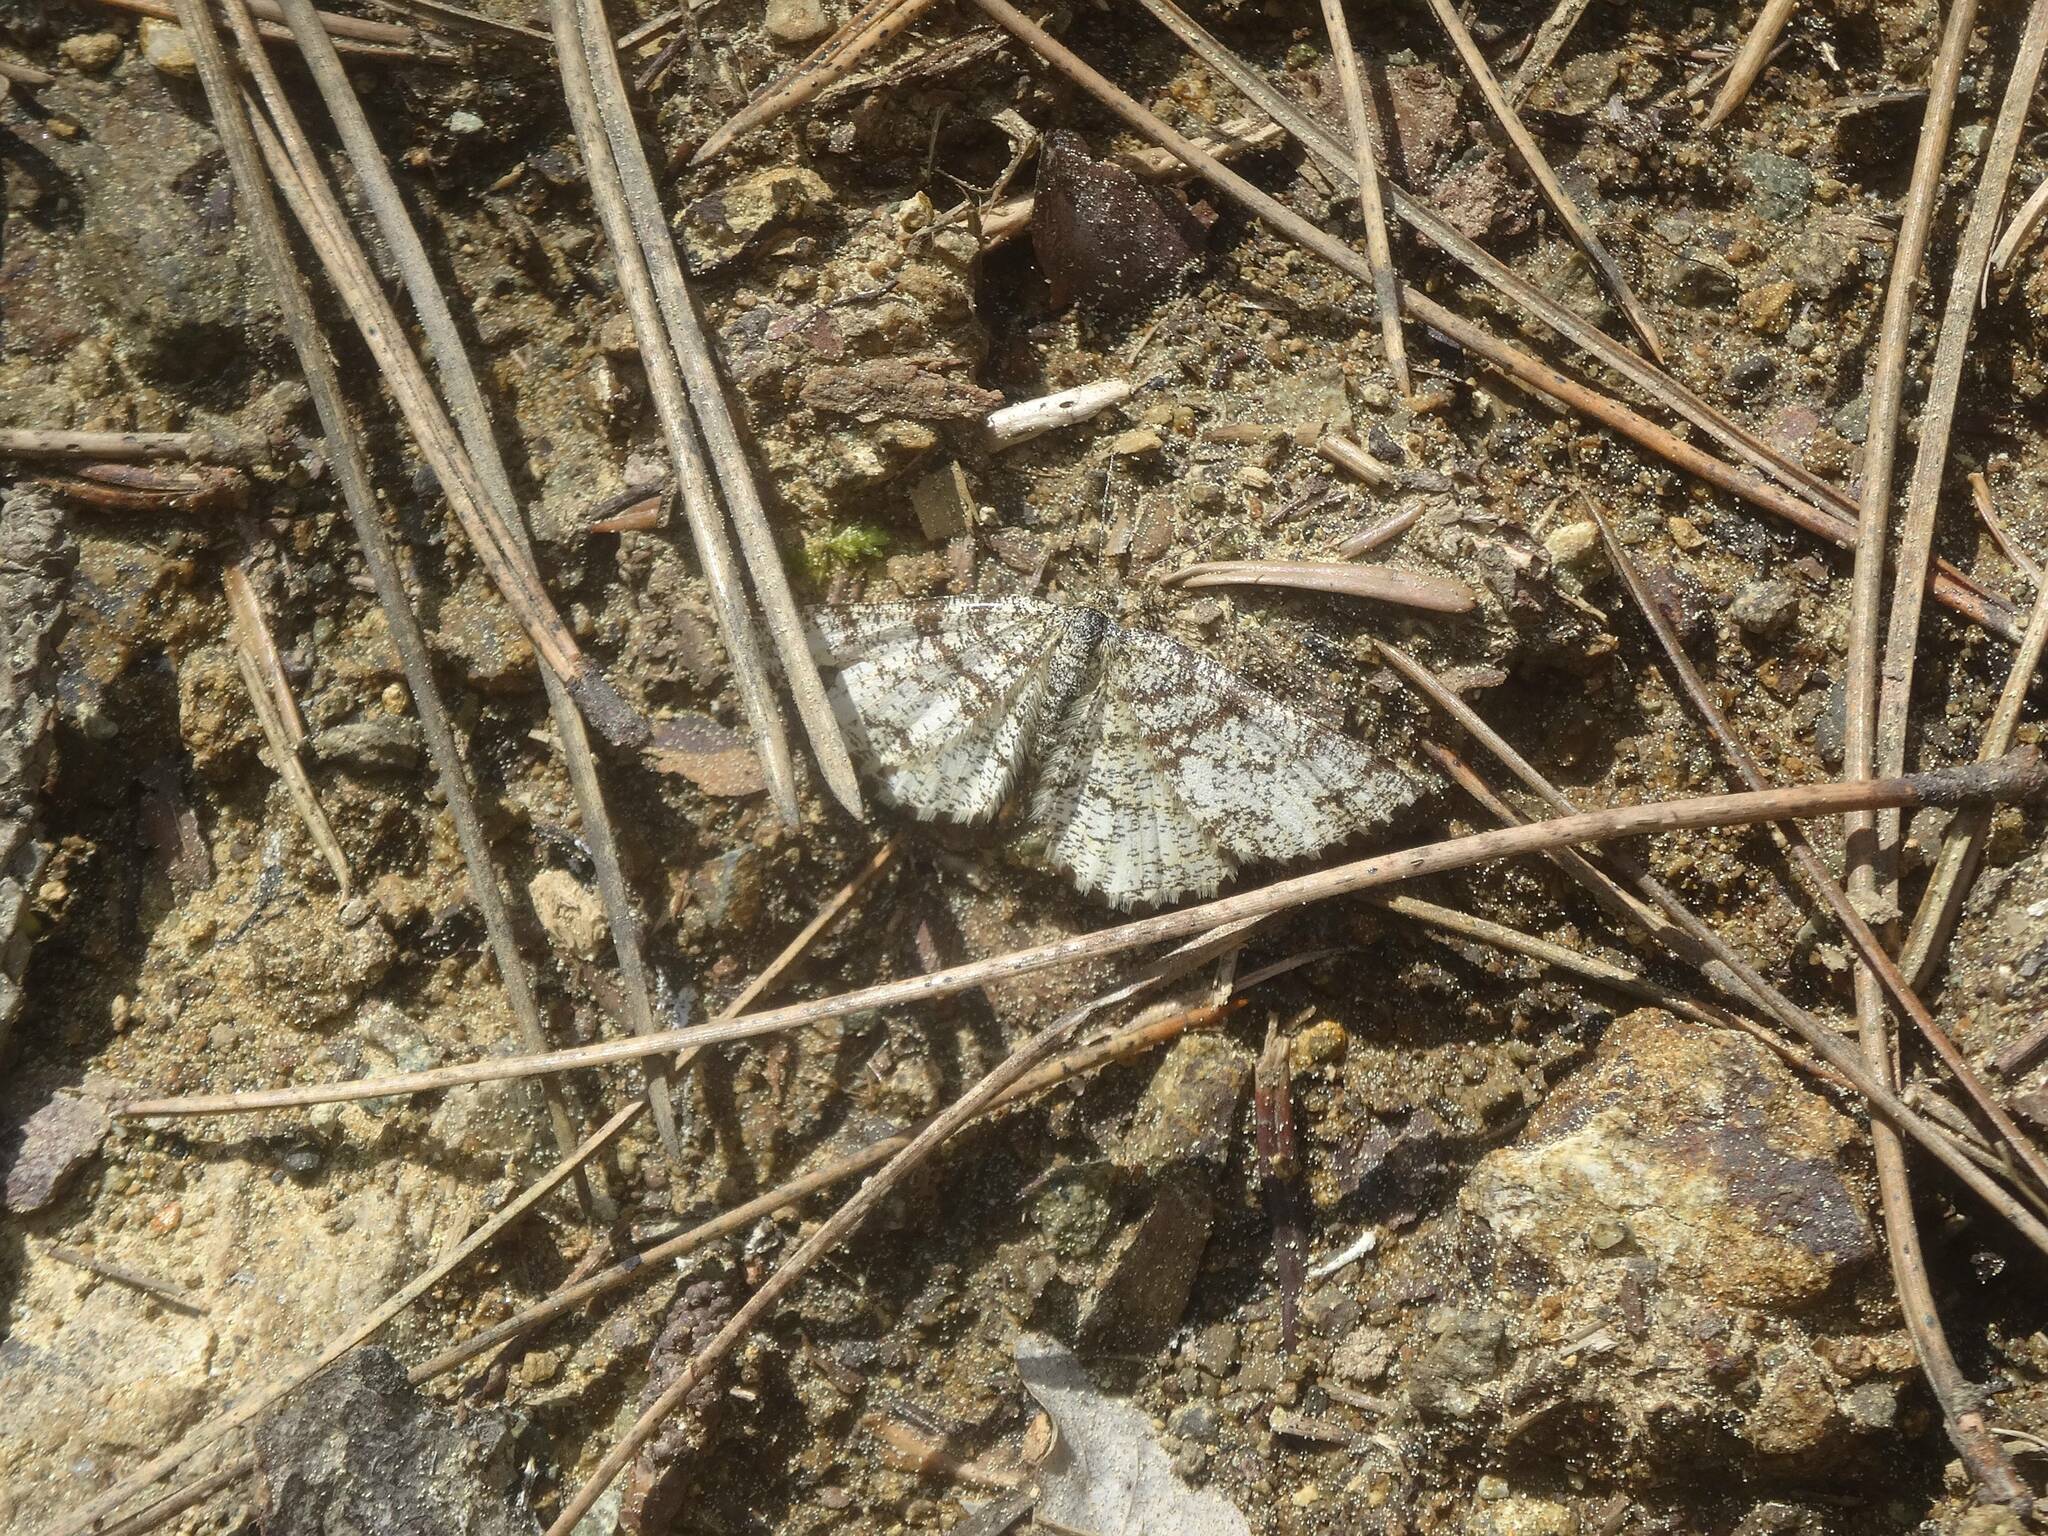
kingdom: Animalia
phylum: Arthropoda
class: Insecta
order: Lepidoptera
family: Geometridae
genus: Ematurga
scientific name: Ematurga atomaria
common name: Common heath
